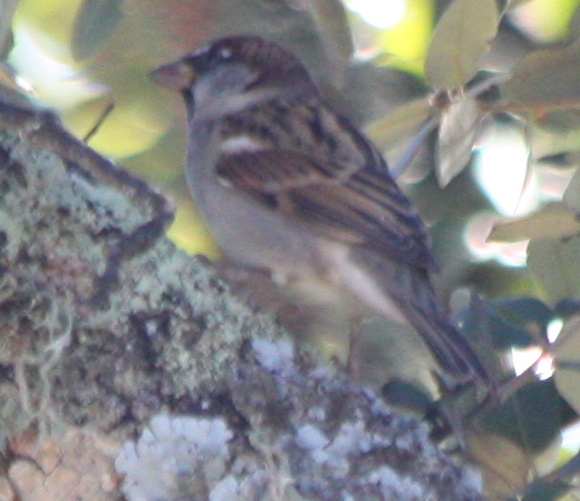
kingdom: Animalia
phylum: Chordata
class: Aves
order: Passeriformes
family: Passeridae
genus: Passer
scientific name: Passer domesticus
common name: House sparrow
